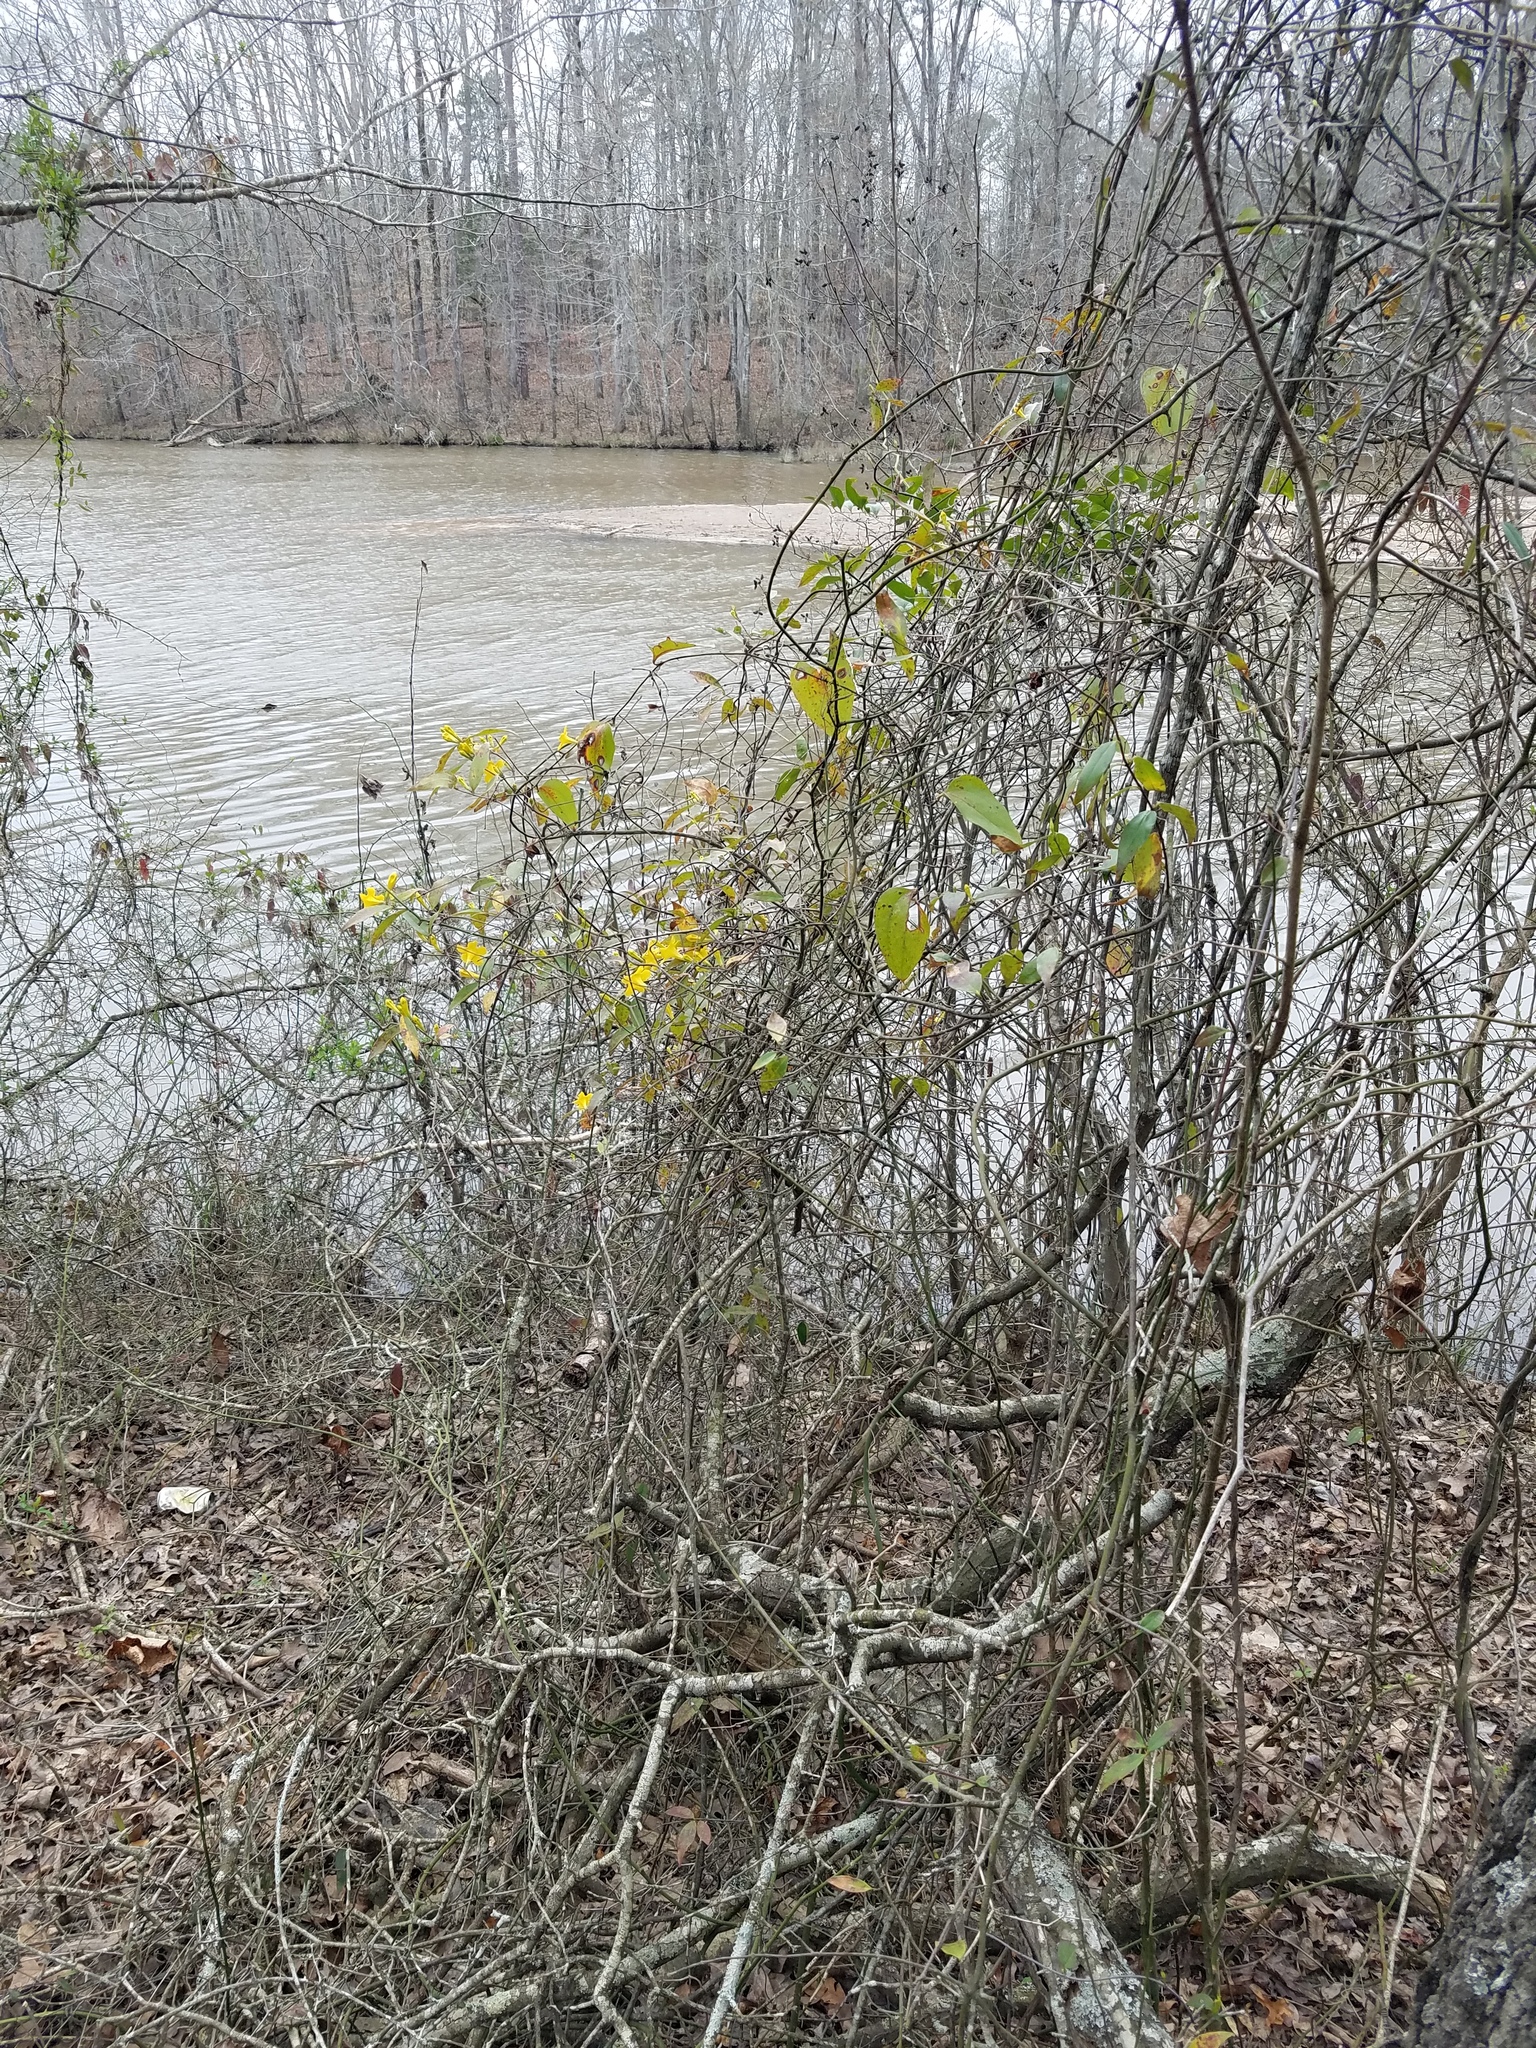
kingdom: Plantae
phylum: Tracheophyta
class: Magnoliopsida
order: Gentianales
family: Gelsemiaceae
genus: Gelsemium
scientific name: Gelsemium sempervirens
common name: Carolina-jasmine
